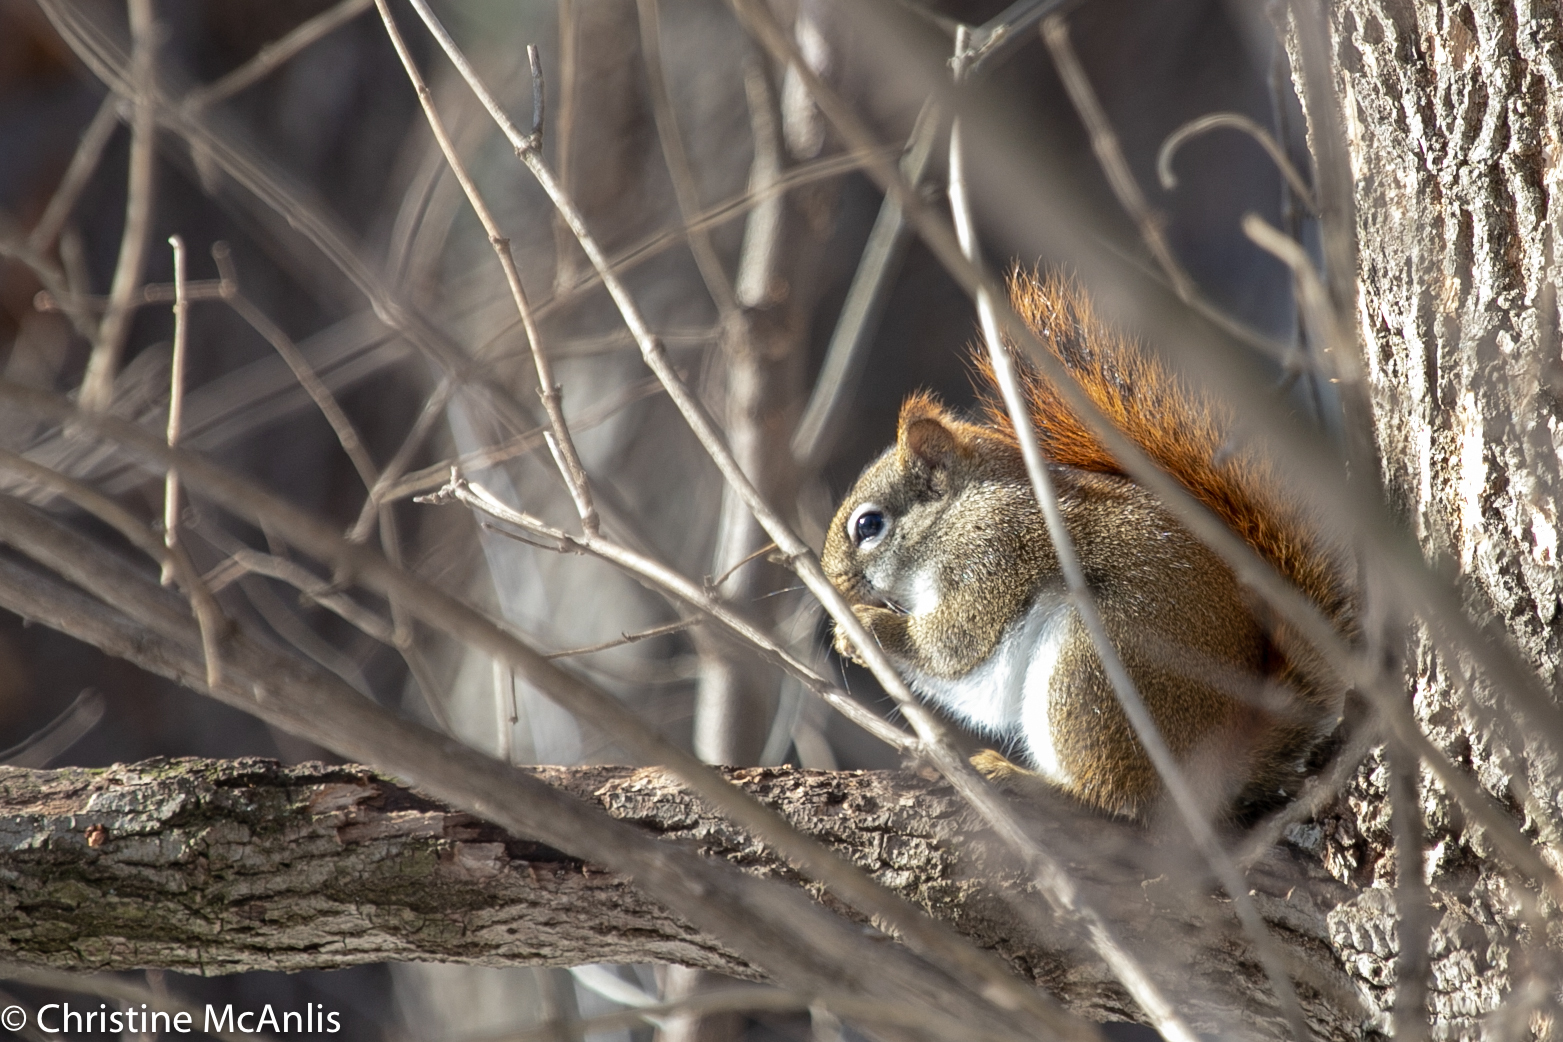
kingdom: Animalia
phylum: Chordata
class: Mammalia
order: Rodentia
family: Sciuridae
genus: Tamiasciurus
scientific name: Tamiasciurus hudsonicus
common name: Red squirrel
